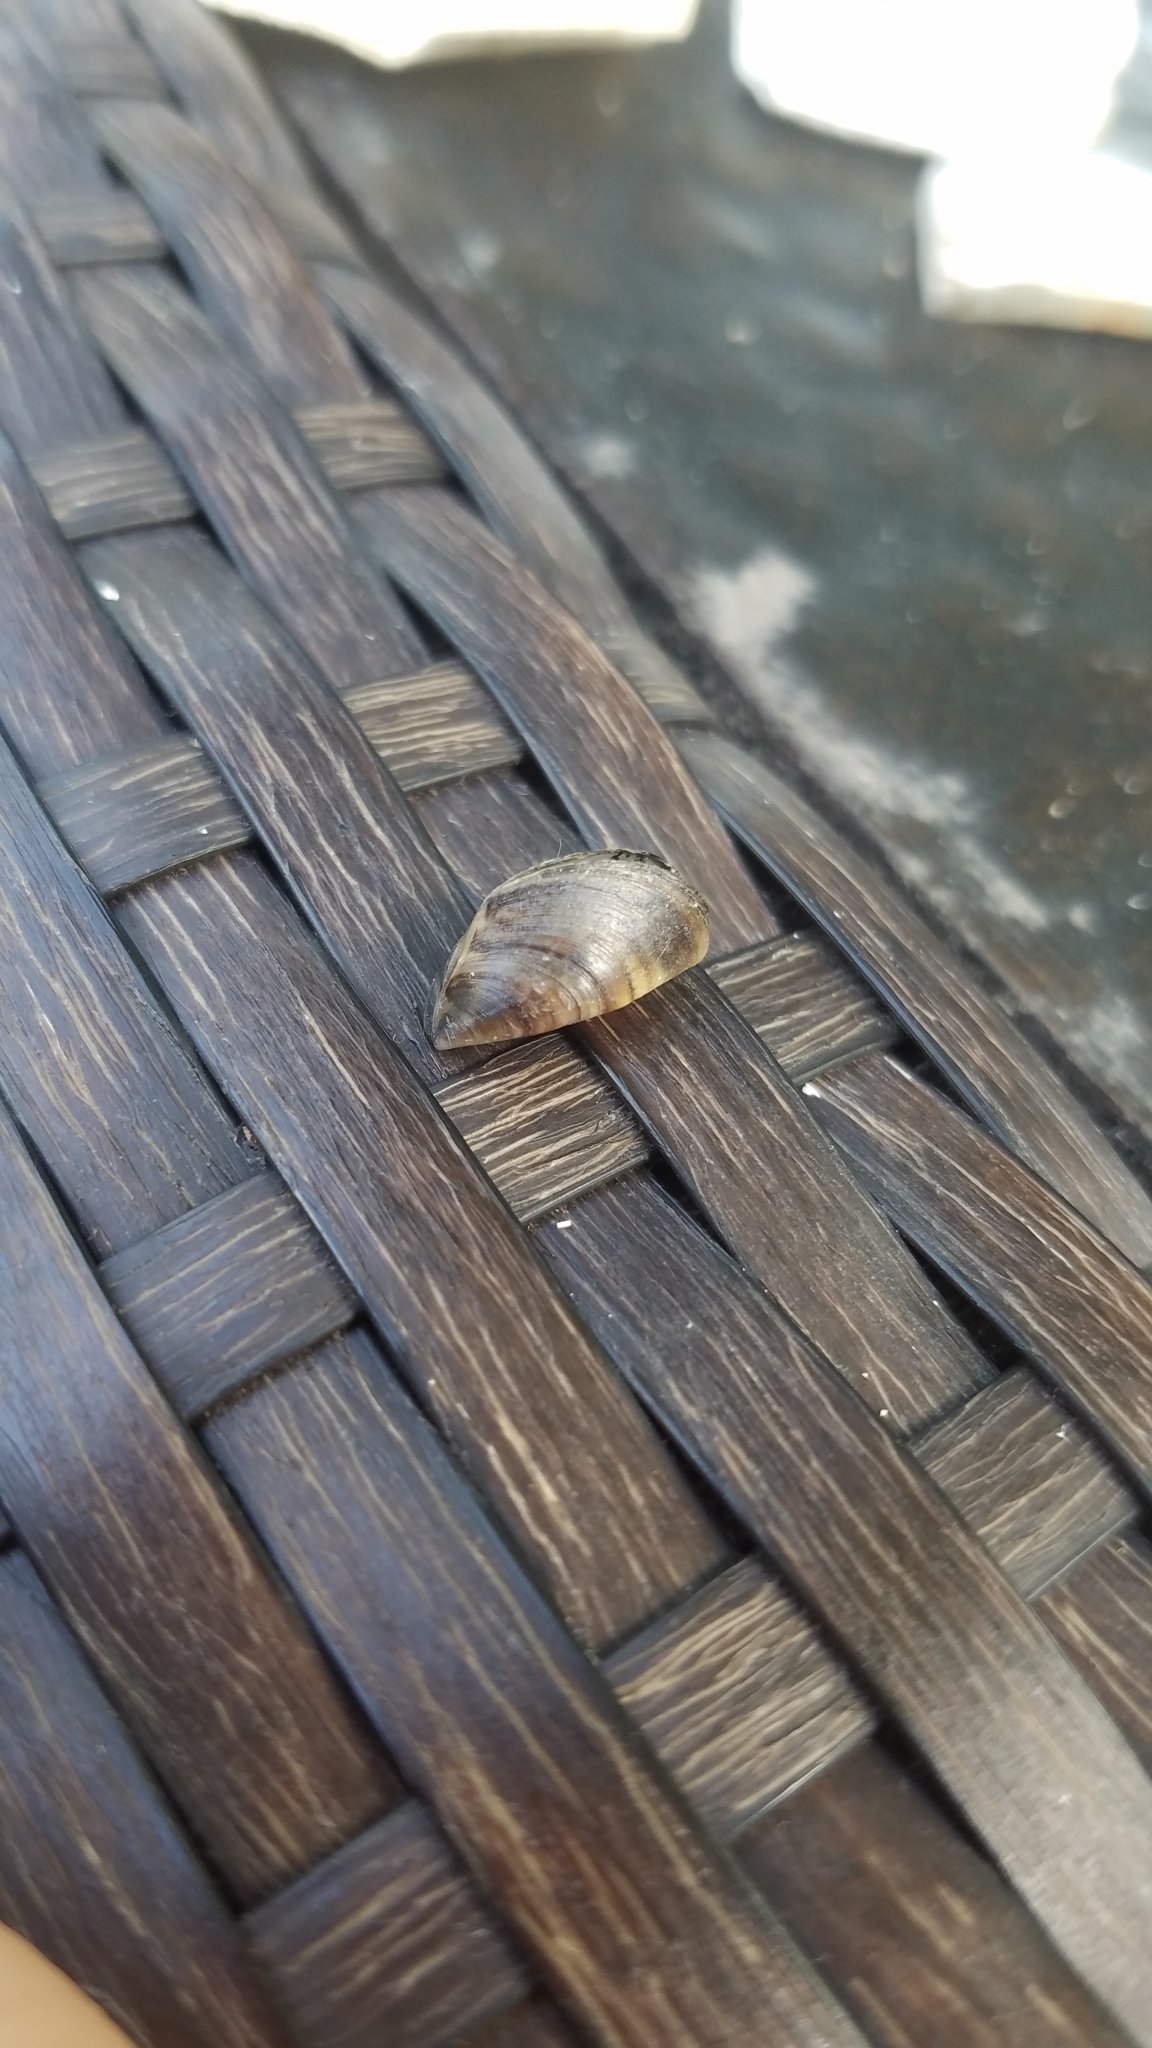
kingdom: Animalia
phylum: Mollusca
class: Bivalvia
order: Myida
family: Dreissenidae
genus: Dreissena
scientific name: Dreissena polymorpha
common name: Zebra mussel
